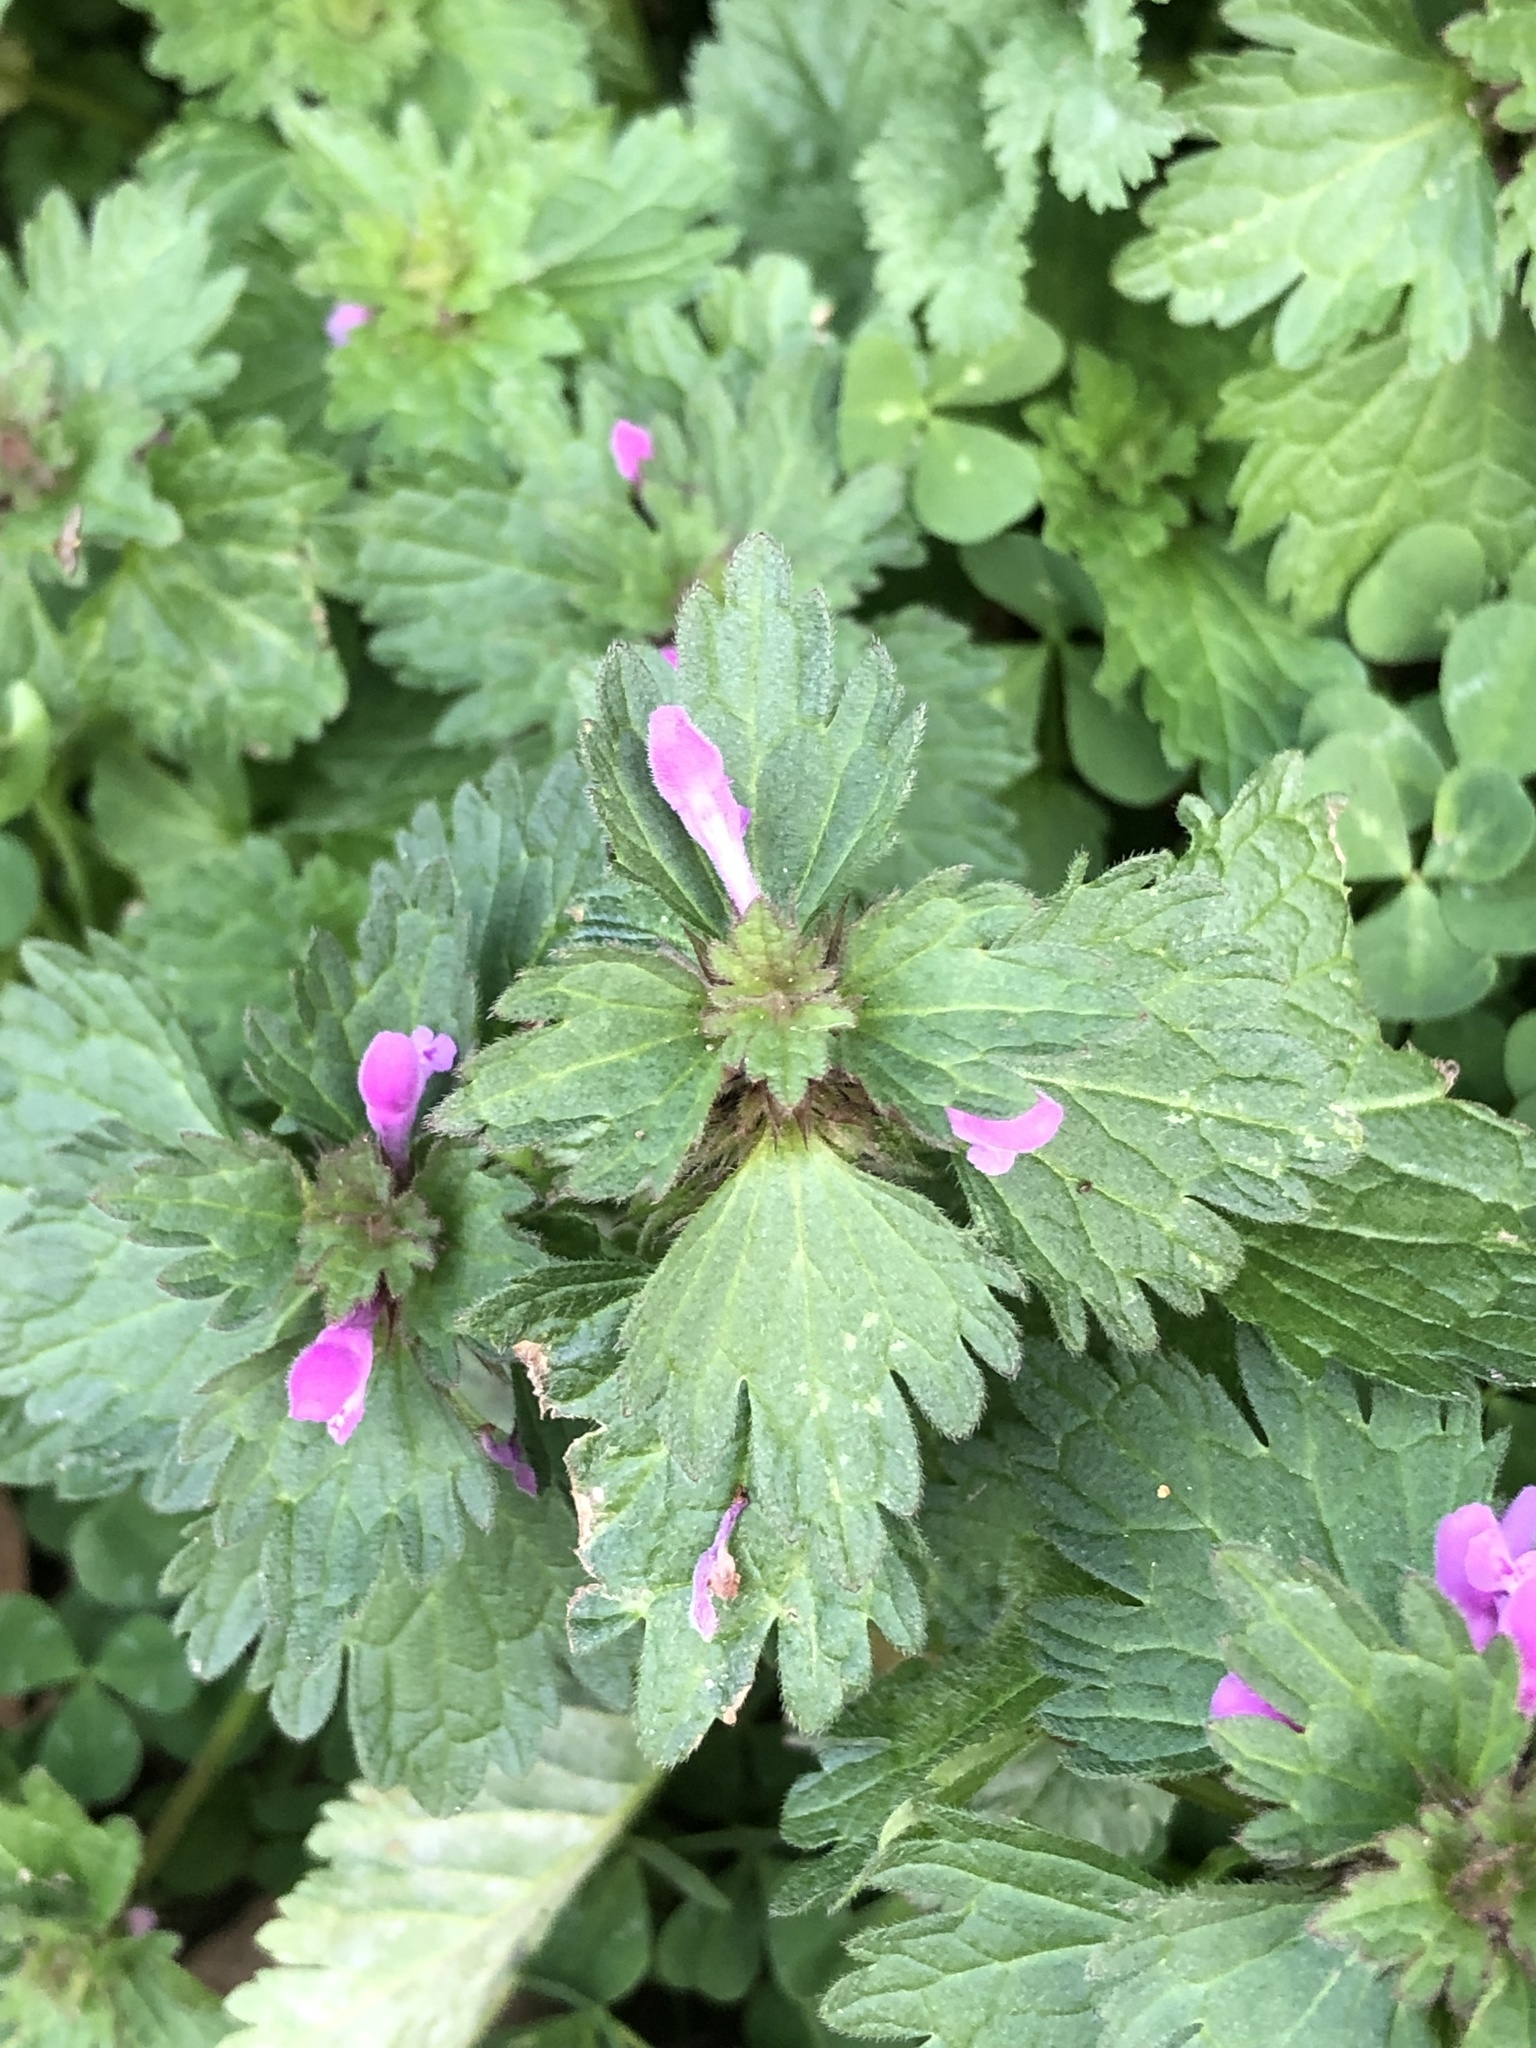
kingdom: Plantae
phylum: Tracheophyta
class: Magnoliopsida
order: Lamiales
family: Lamiaceae
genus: Lamium
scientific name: Lamium amplexicaule
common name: Henbit dead-nettle
